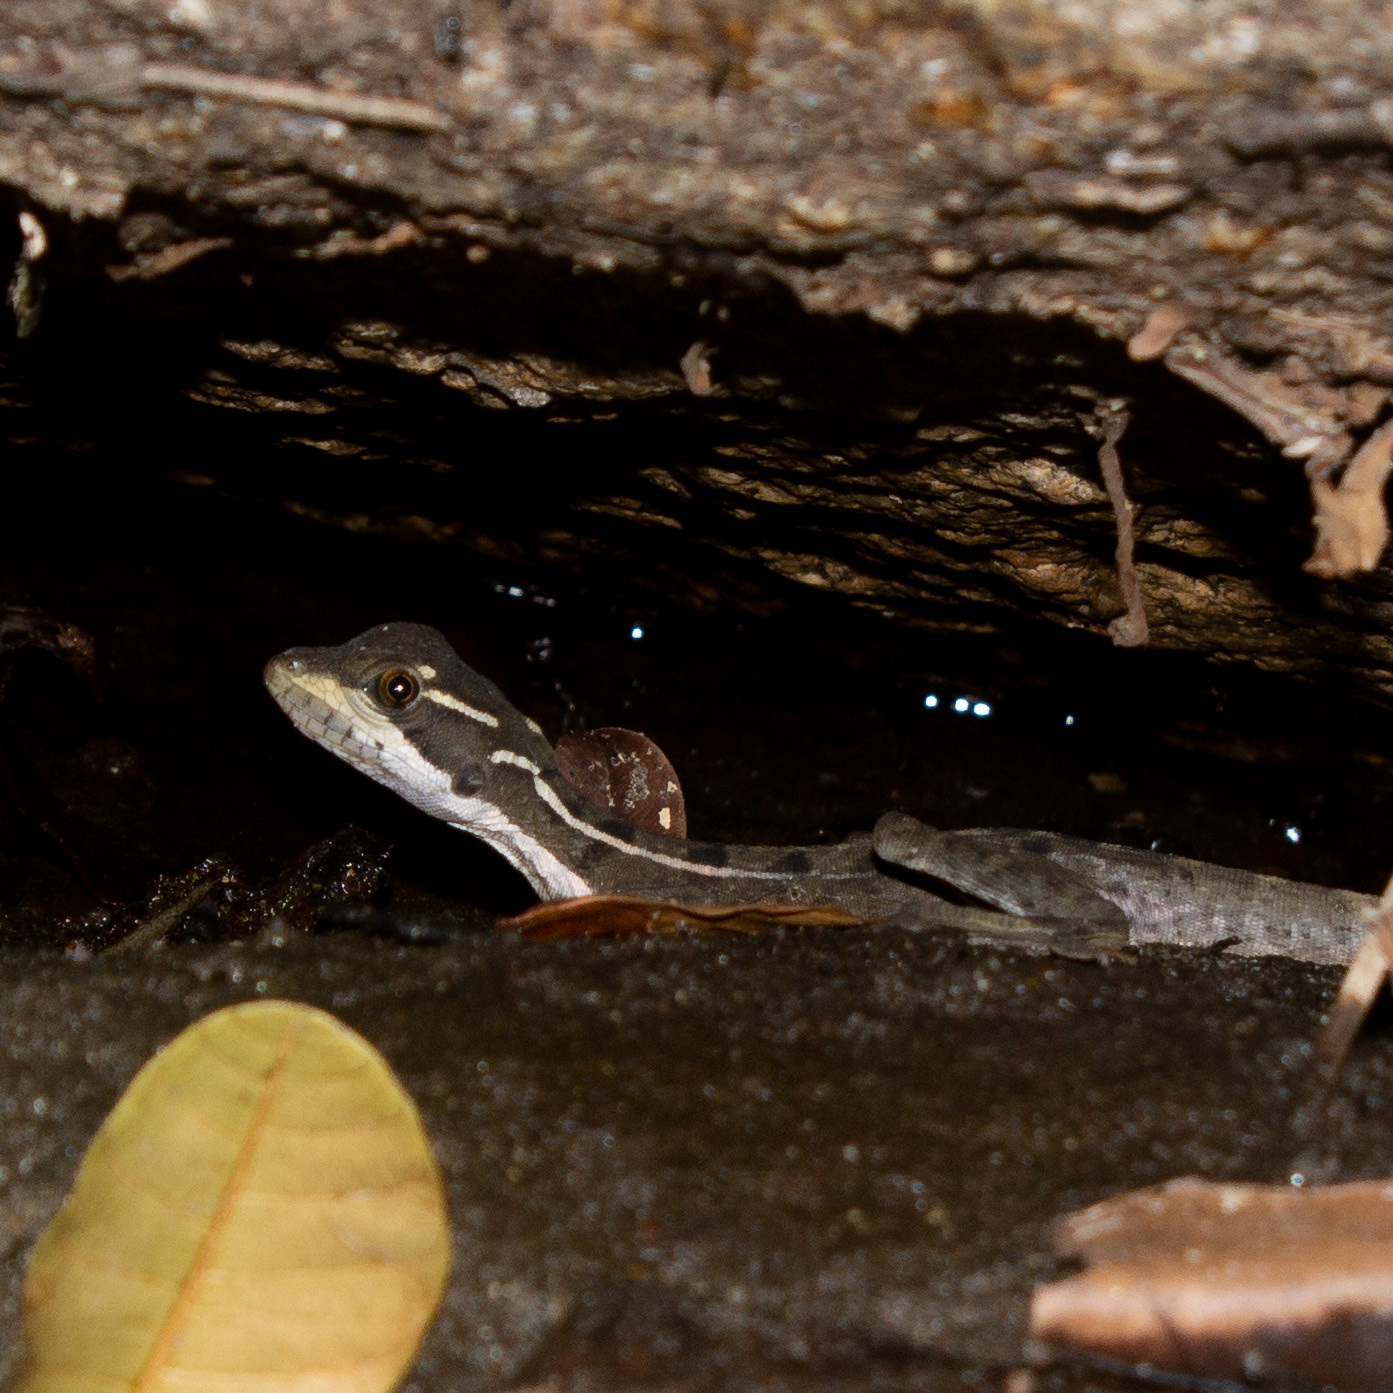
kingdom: Animalia
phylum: Chordata
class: Squamata
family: Corytophanidae
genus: Basiliscus
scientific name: Basiliscus basiliscus
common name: Common basilisk
